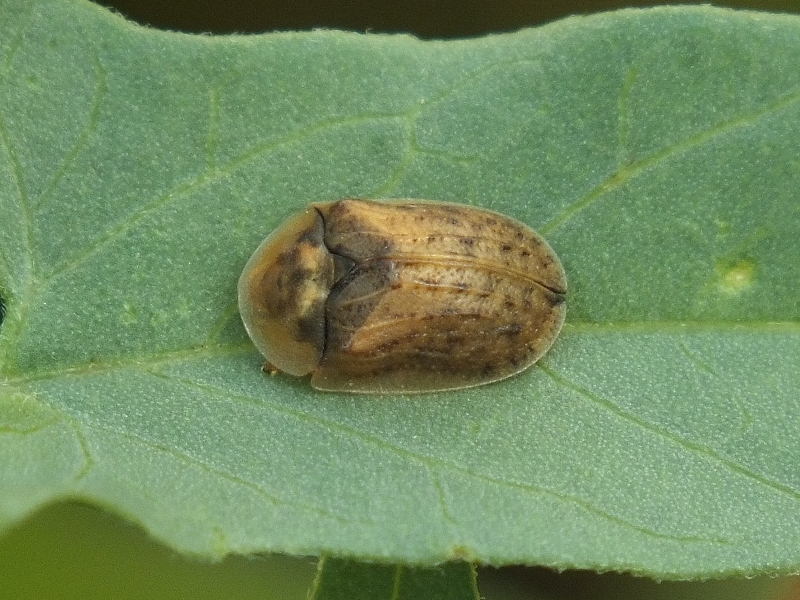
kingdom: Animalia
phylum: Arthropoda
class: Insecta
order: Coleoptera
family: Chrysomelidae
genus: Hypocassida
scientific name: Hypocassida subferruginea
